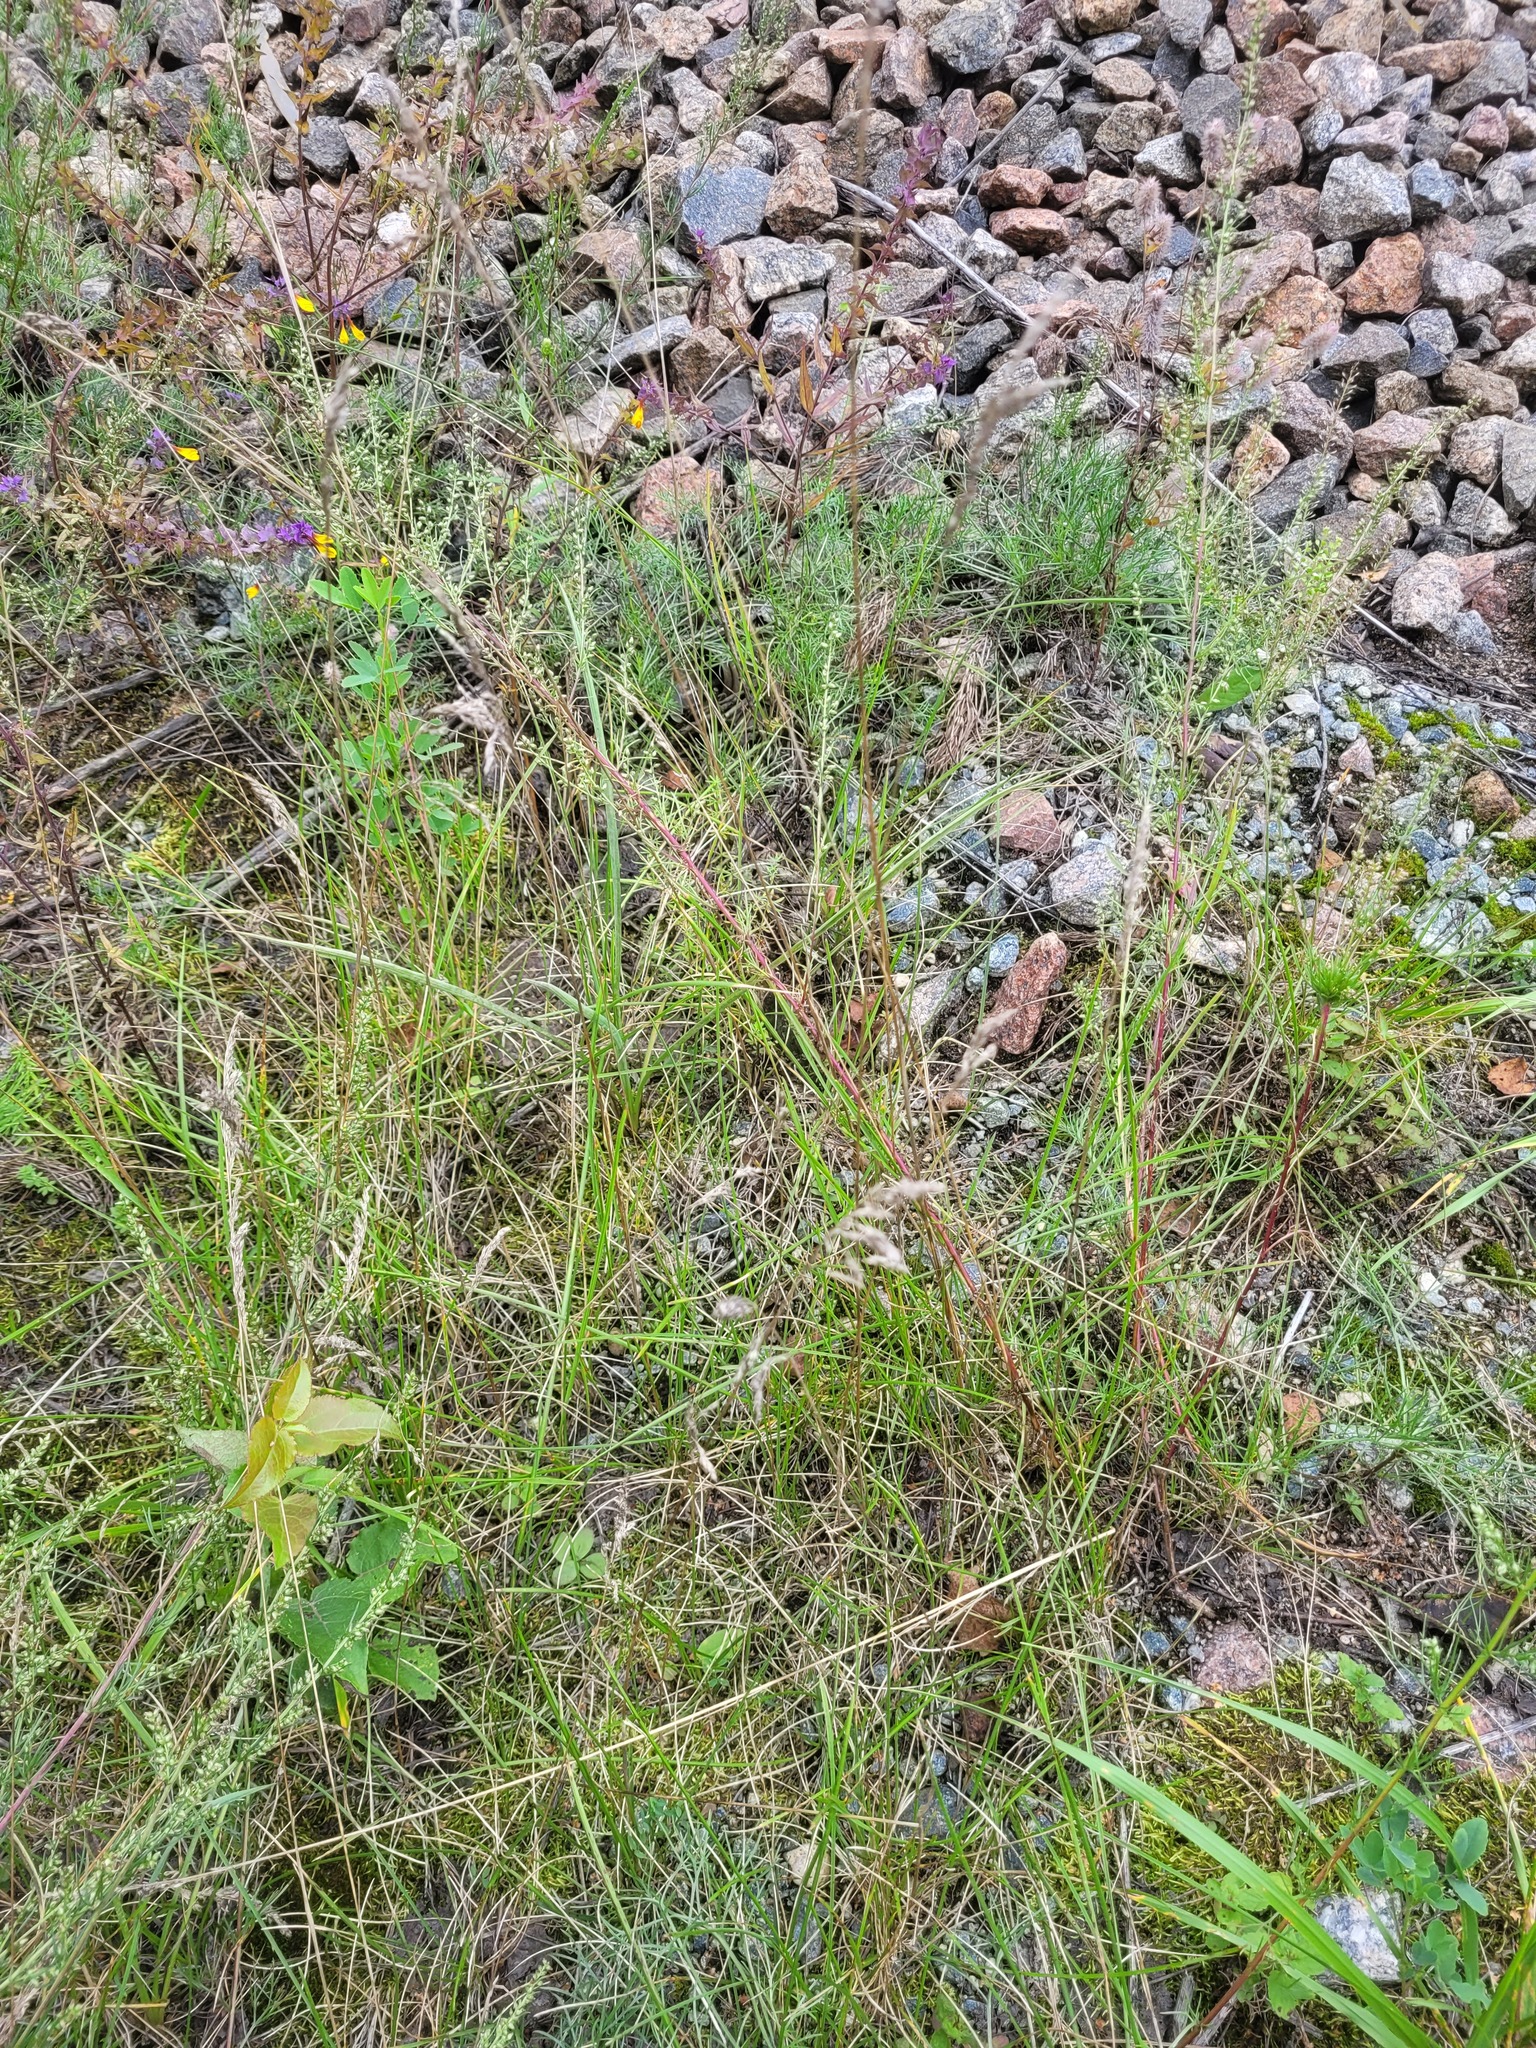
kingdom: Plantae
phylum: Tracheophyta
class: Liliopsida
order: Poales
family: Poaceae
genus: Poa
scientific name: Poa angustifolia
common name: Narrow-leaved meadow-grass
